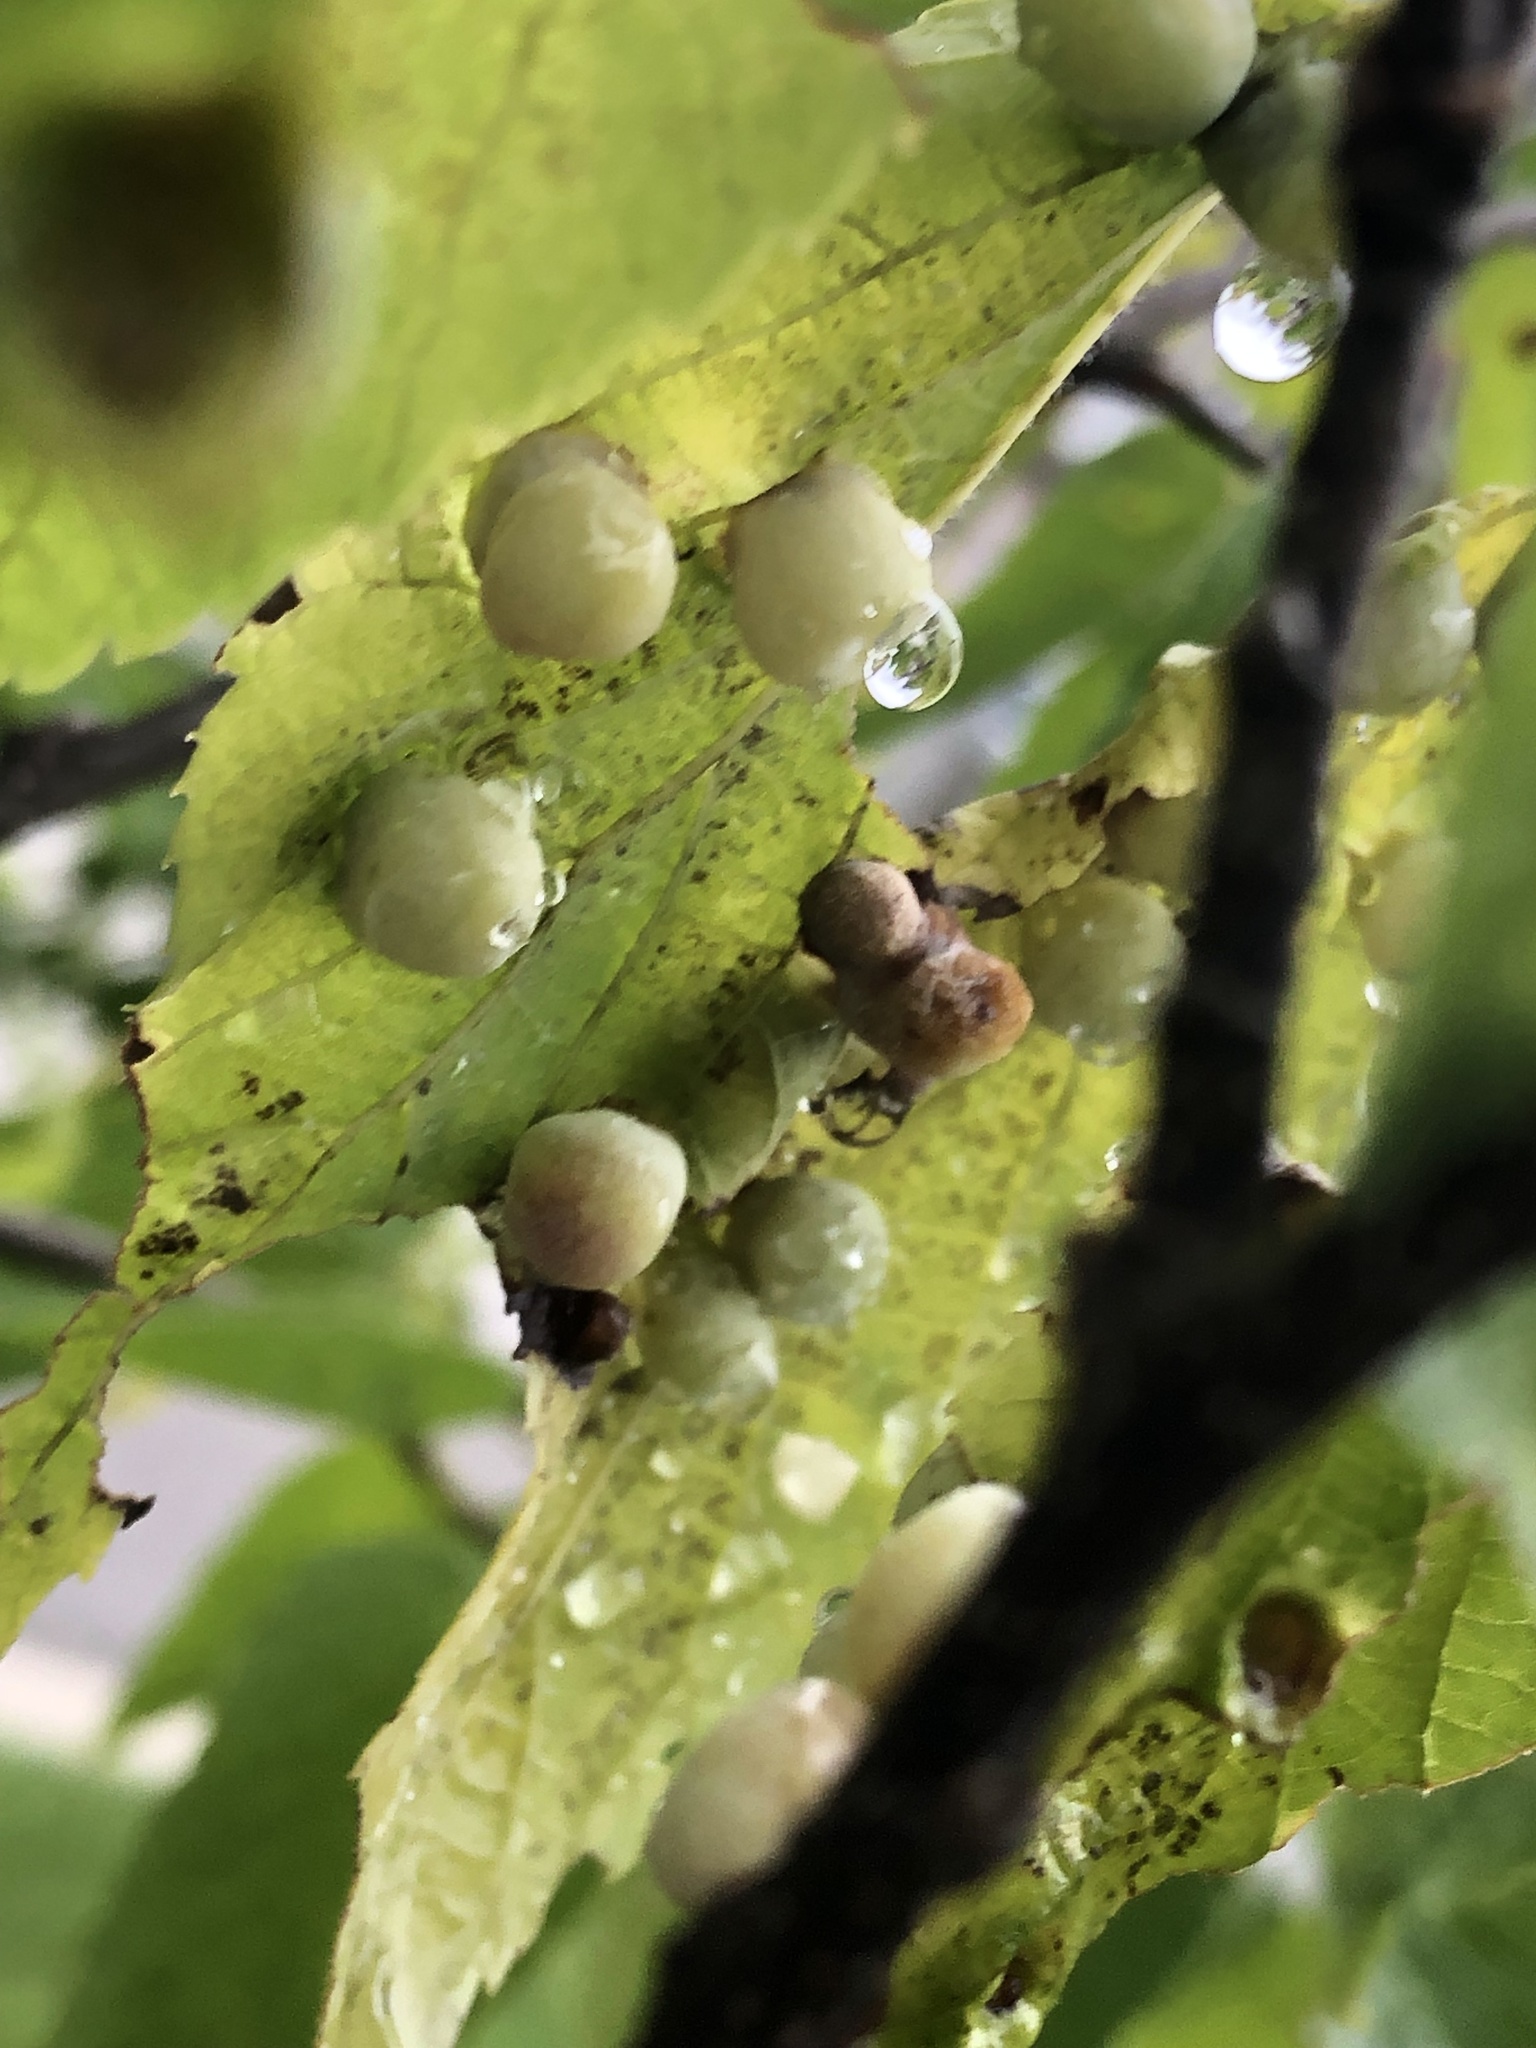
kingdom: Animalia
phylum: Arthropoda
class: Insecta
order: Hemiptera
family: Aphalaridae
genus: Pachypsylla
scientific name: Pachypsylla celtidismamma
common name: Hackberry nipplegall psyllid
